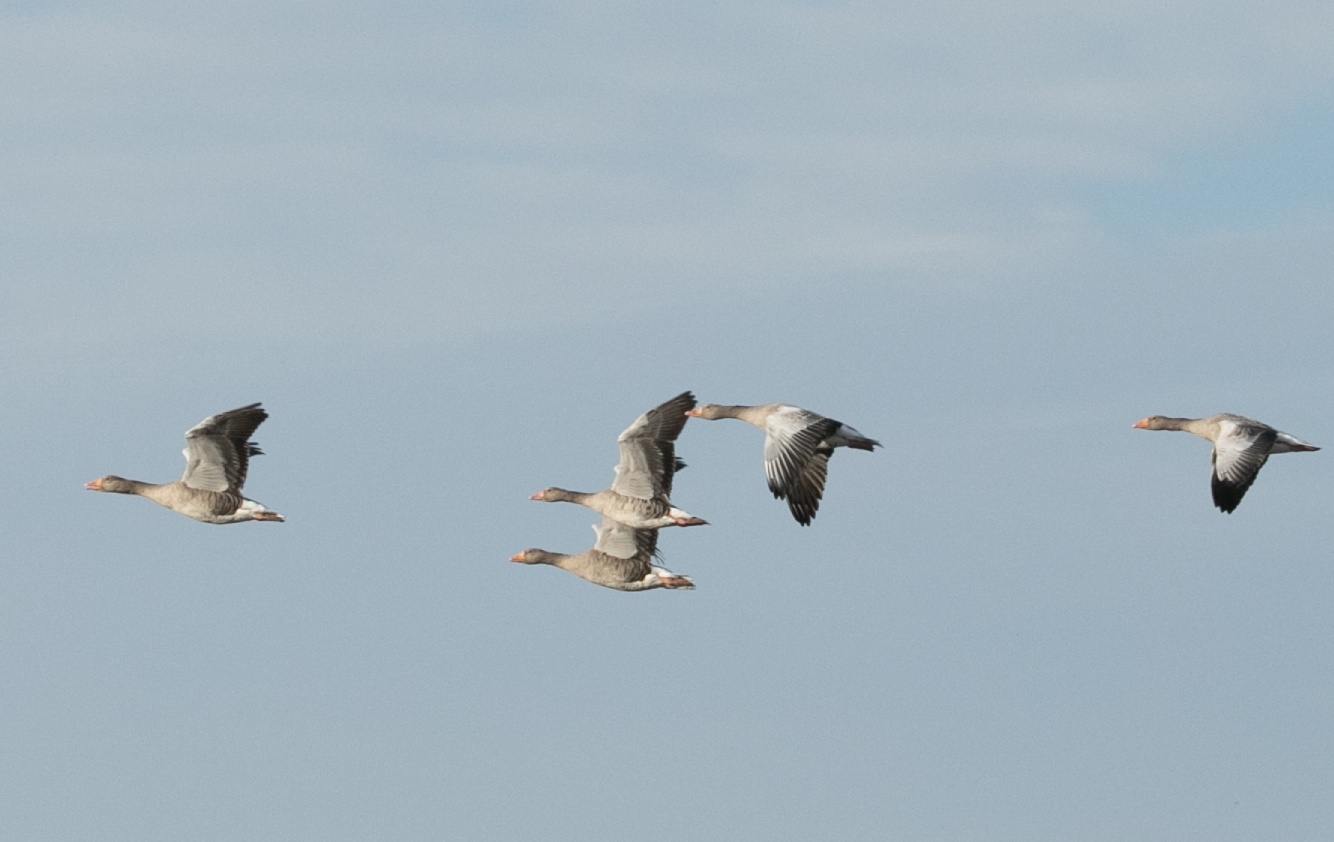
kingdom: Animalia
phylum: Chordata
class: Aves
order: Anseriformes
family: Anatidae
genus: Anser
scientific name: Anser anser
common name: Greylag goose
